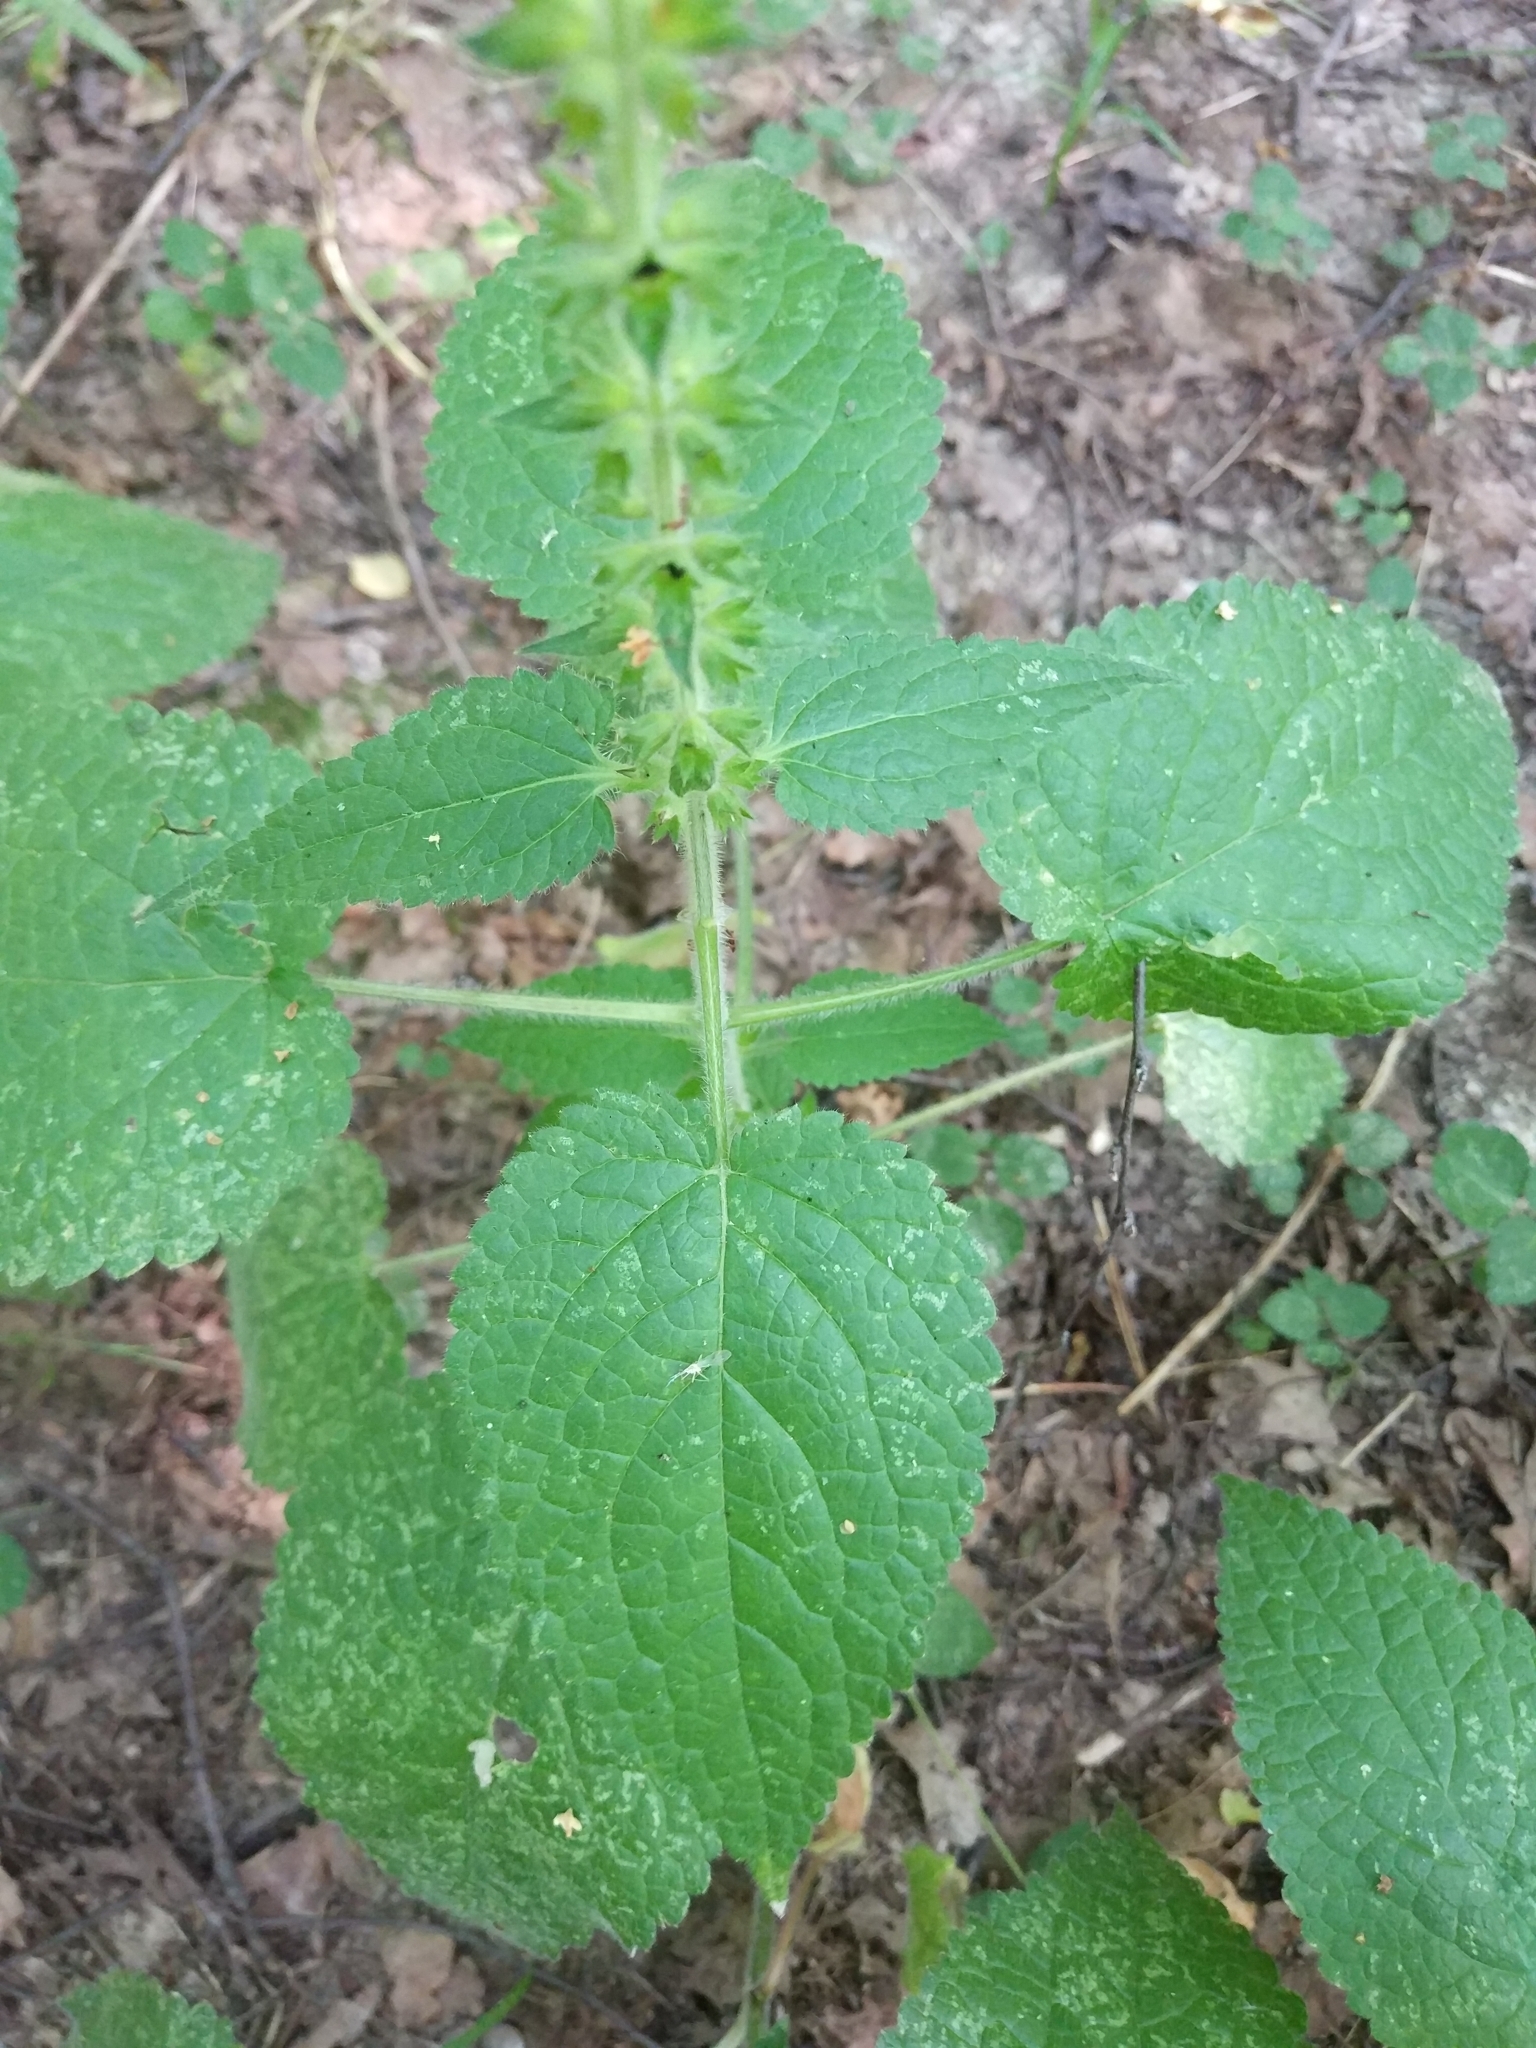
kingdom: Plantae
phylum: Tracheophyta
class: Magnoliopsida
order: Lamiales
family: Lamiaceae
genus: Stachys
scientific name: Stachys sylvatica
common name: Hedge woundwort
